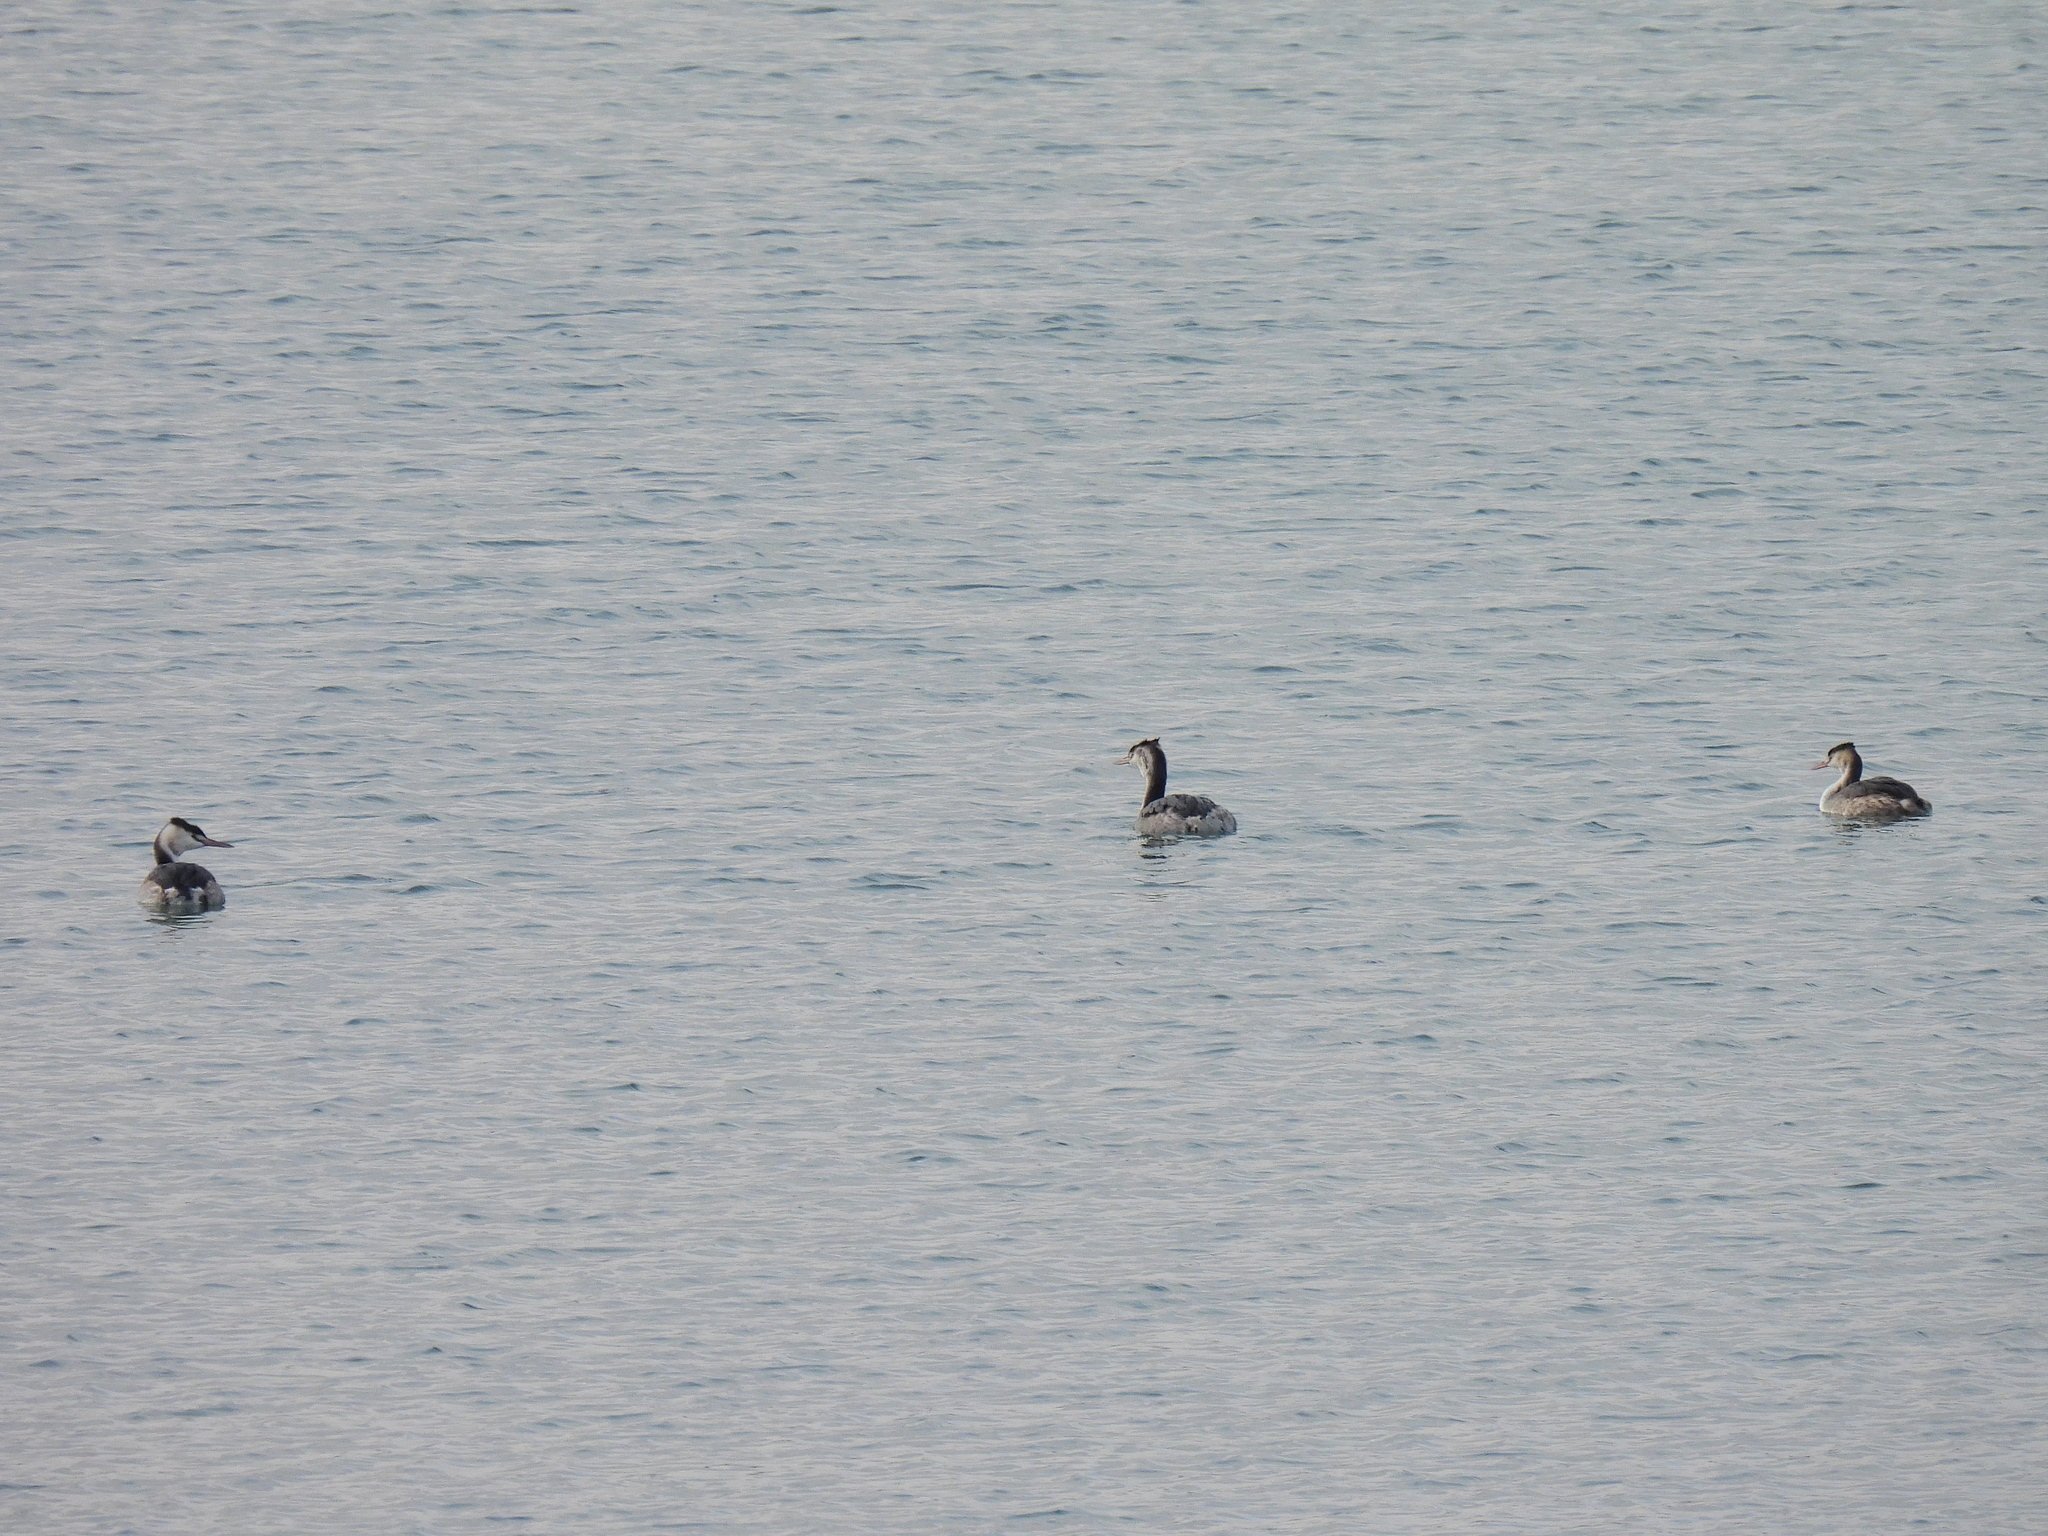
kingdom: Animalia
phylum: Chordata
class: Aves
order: Podicipediformes
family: Podicipedidae
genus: Podiceps
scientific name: Podiceps cristatus
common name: Great crested grebe
